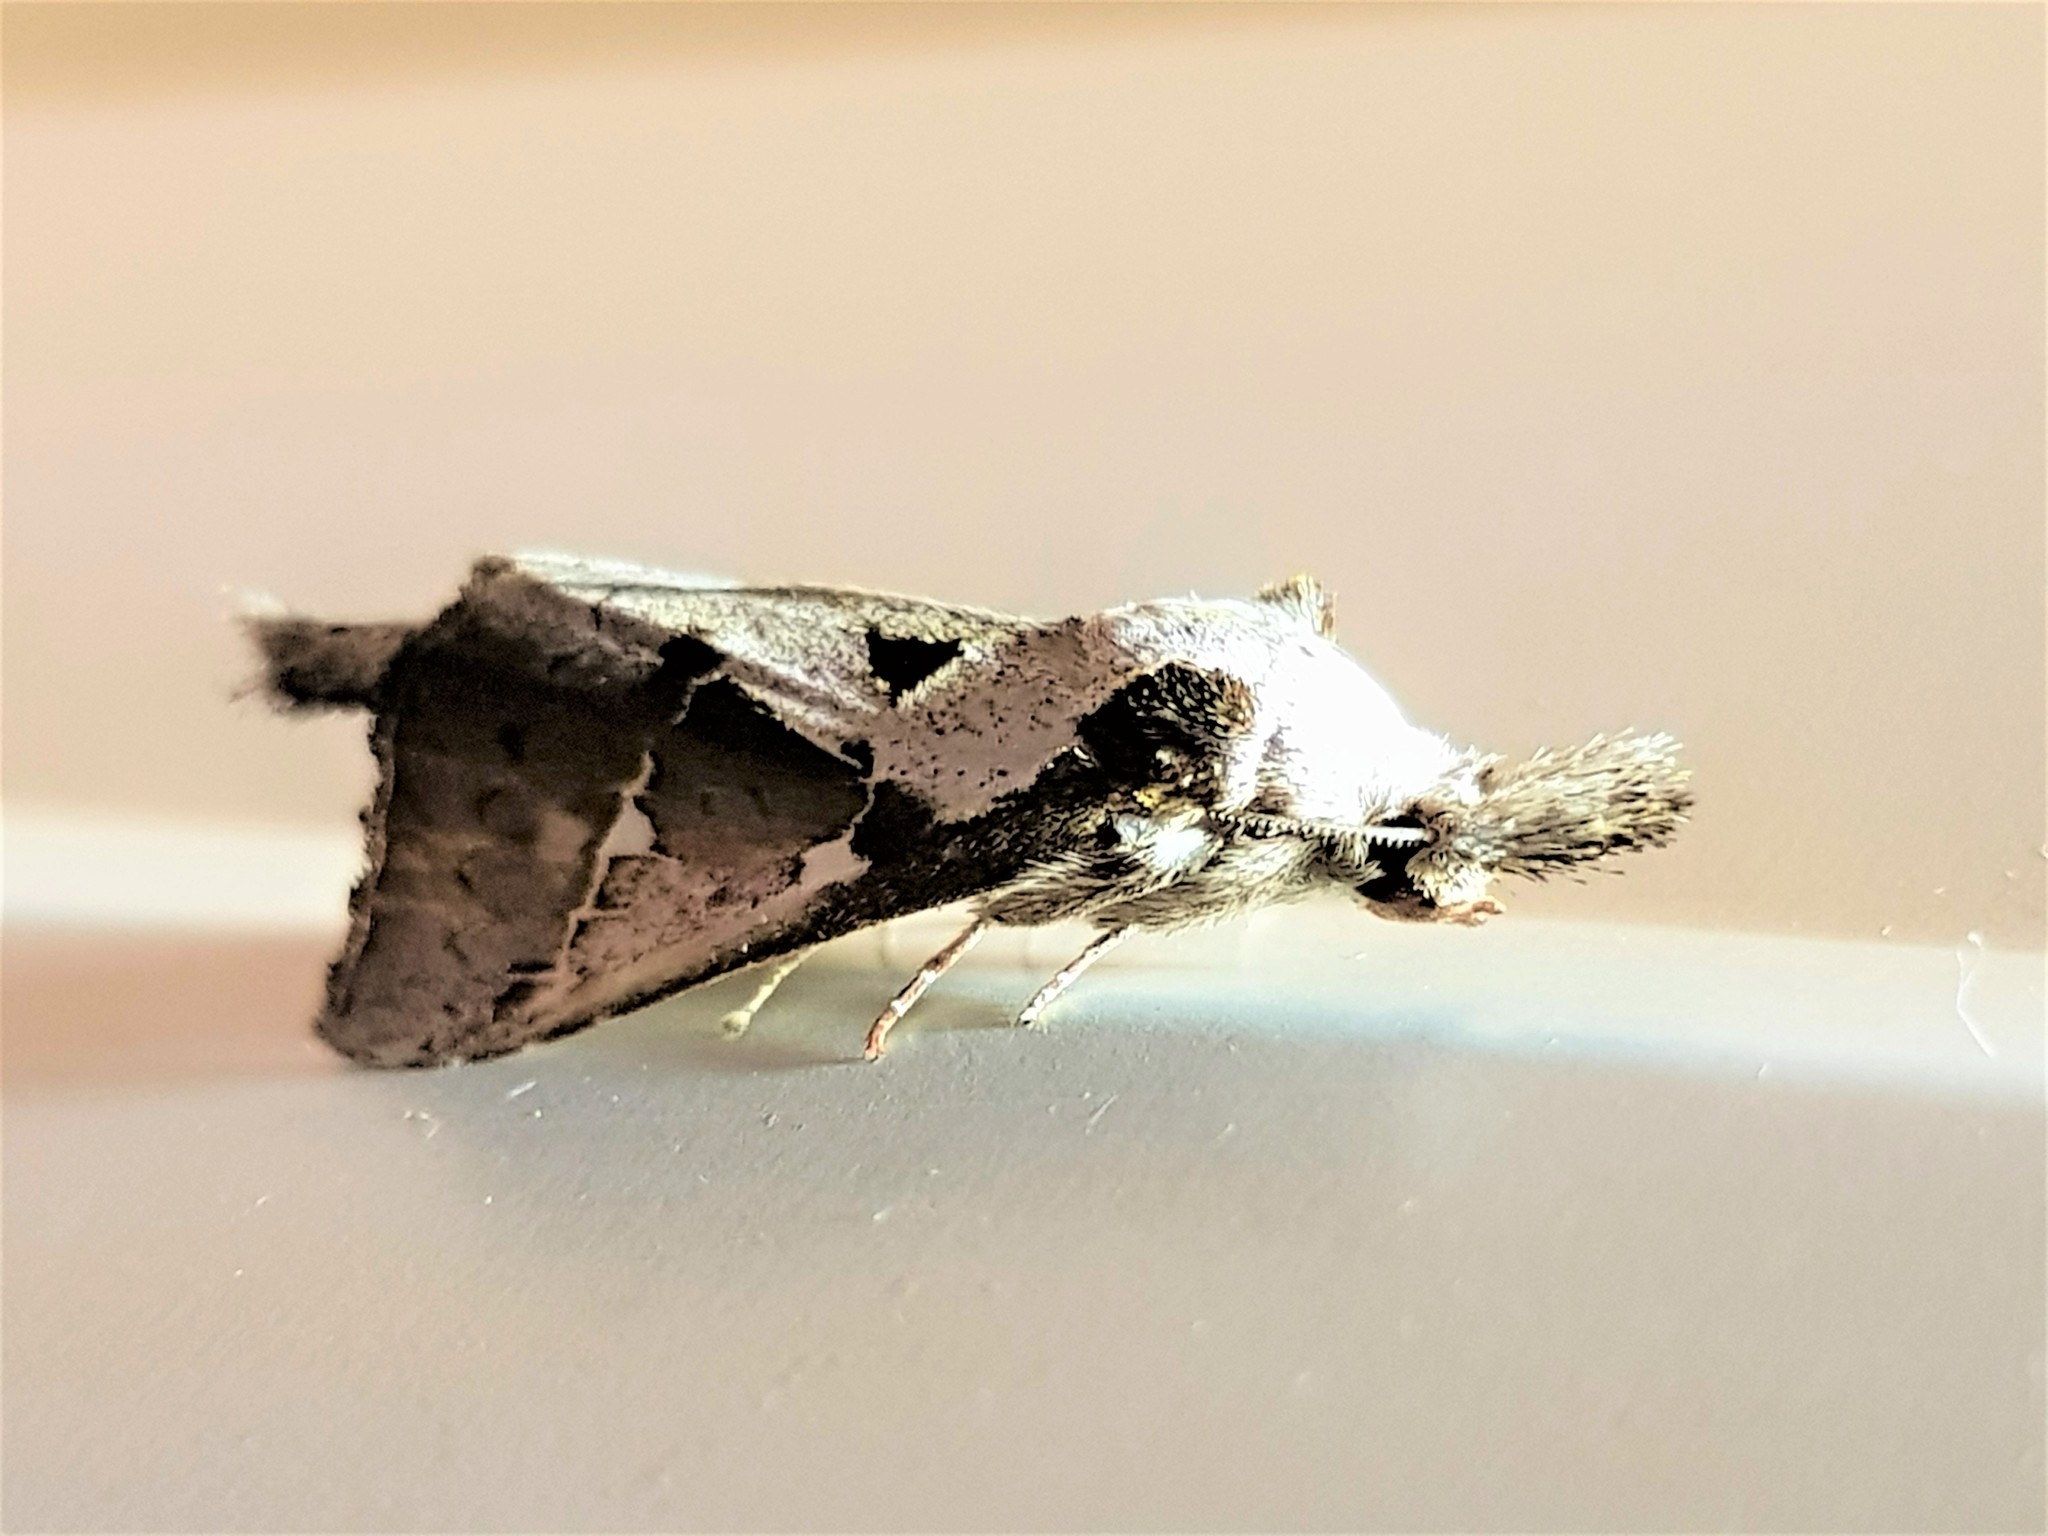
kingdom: Animalia
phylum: Arthropoda
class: Insecta
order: Lepidoptera
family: Notodontidae
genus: Lemairegisa
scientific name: Lemairegisa Lepasta maltha
